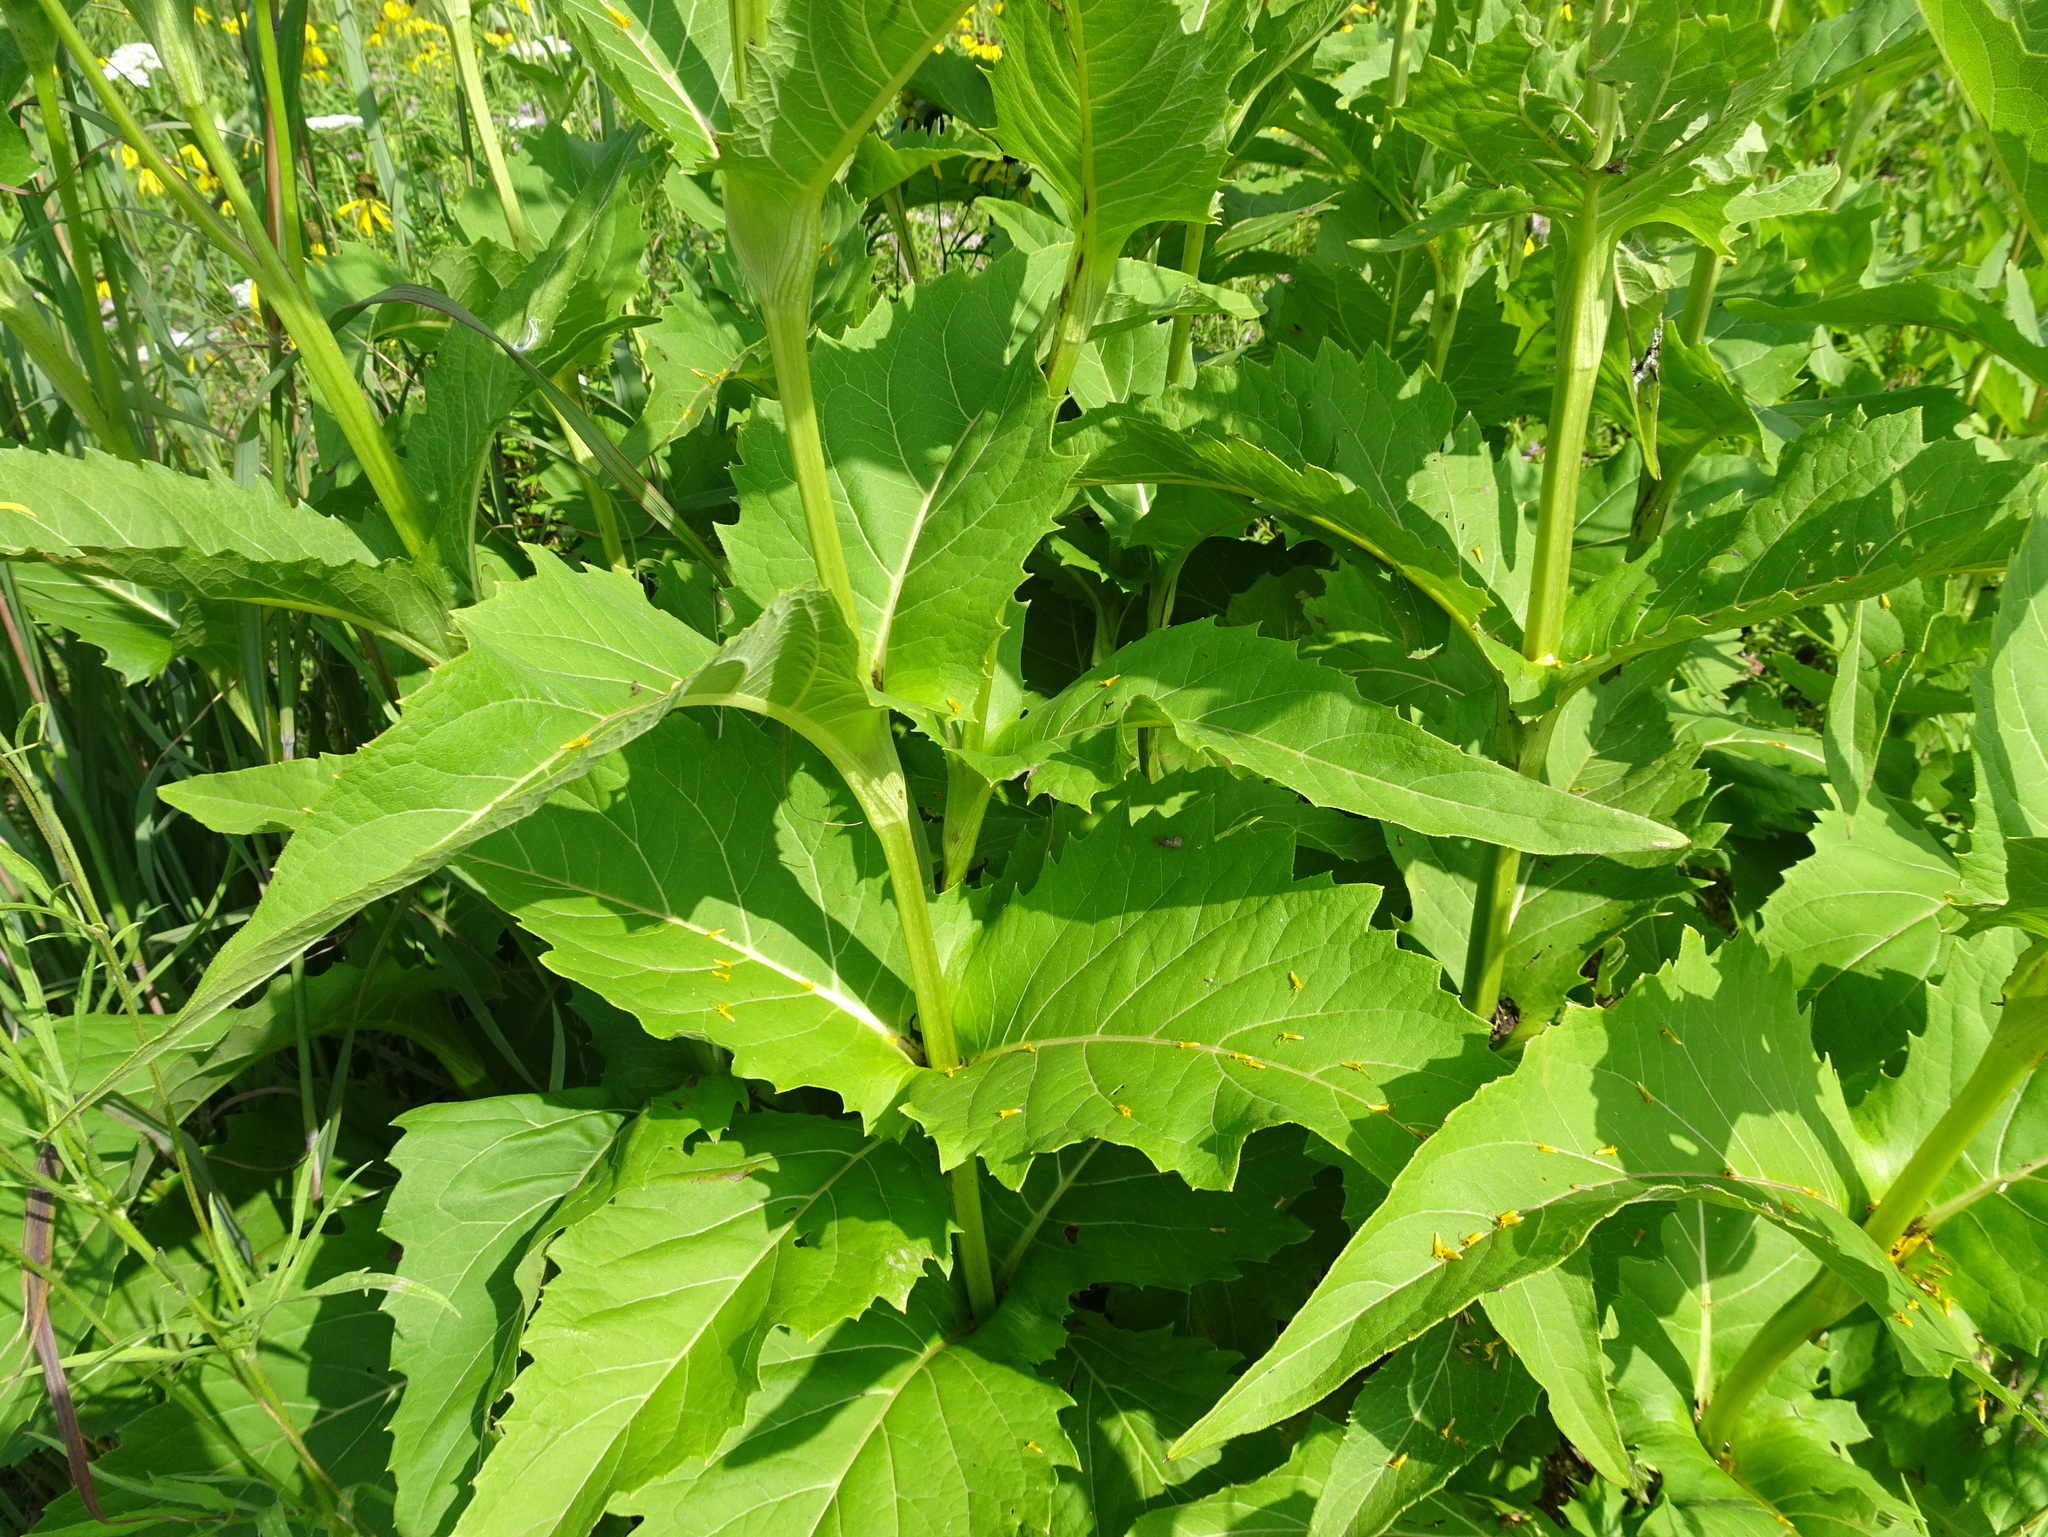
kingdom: Plantae
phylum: Tracheophyta
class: Magnoliopsida
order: Asterales
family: Asteraceae
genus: Silphium
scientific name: Silphium perfoliatum
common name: Cup-plant
